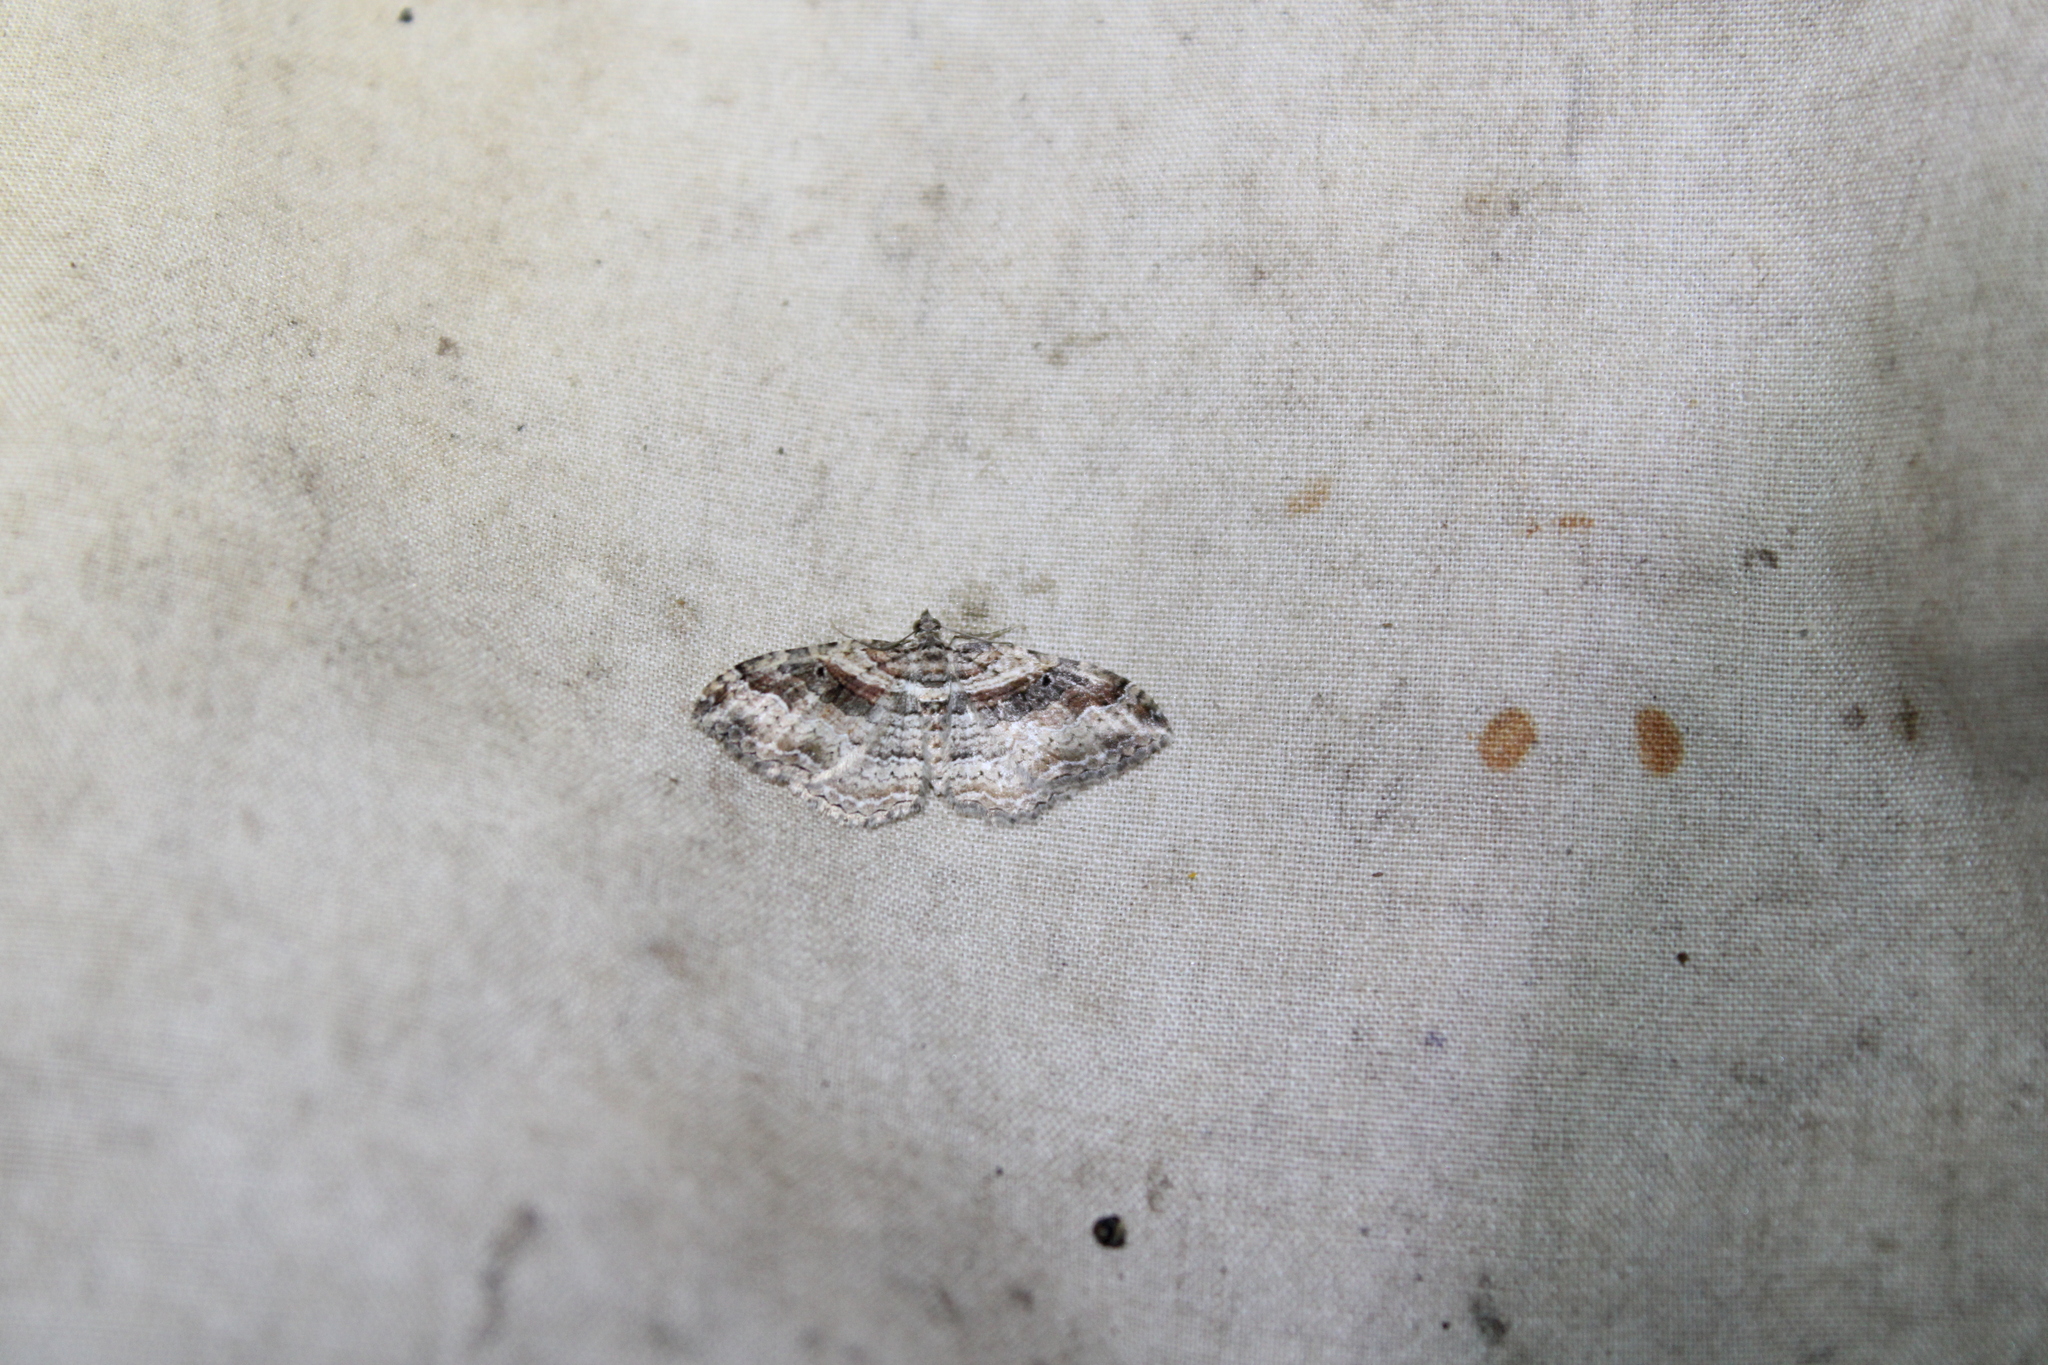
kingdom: Animalia
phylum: Arthropoda
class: Insecta
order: Lepidoptera
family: Geometridae
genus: Costaconvexa
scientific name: Costaconvexa centrostrigaria
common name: Bent-line carpet
